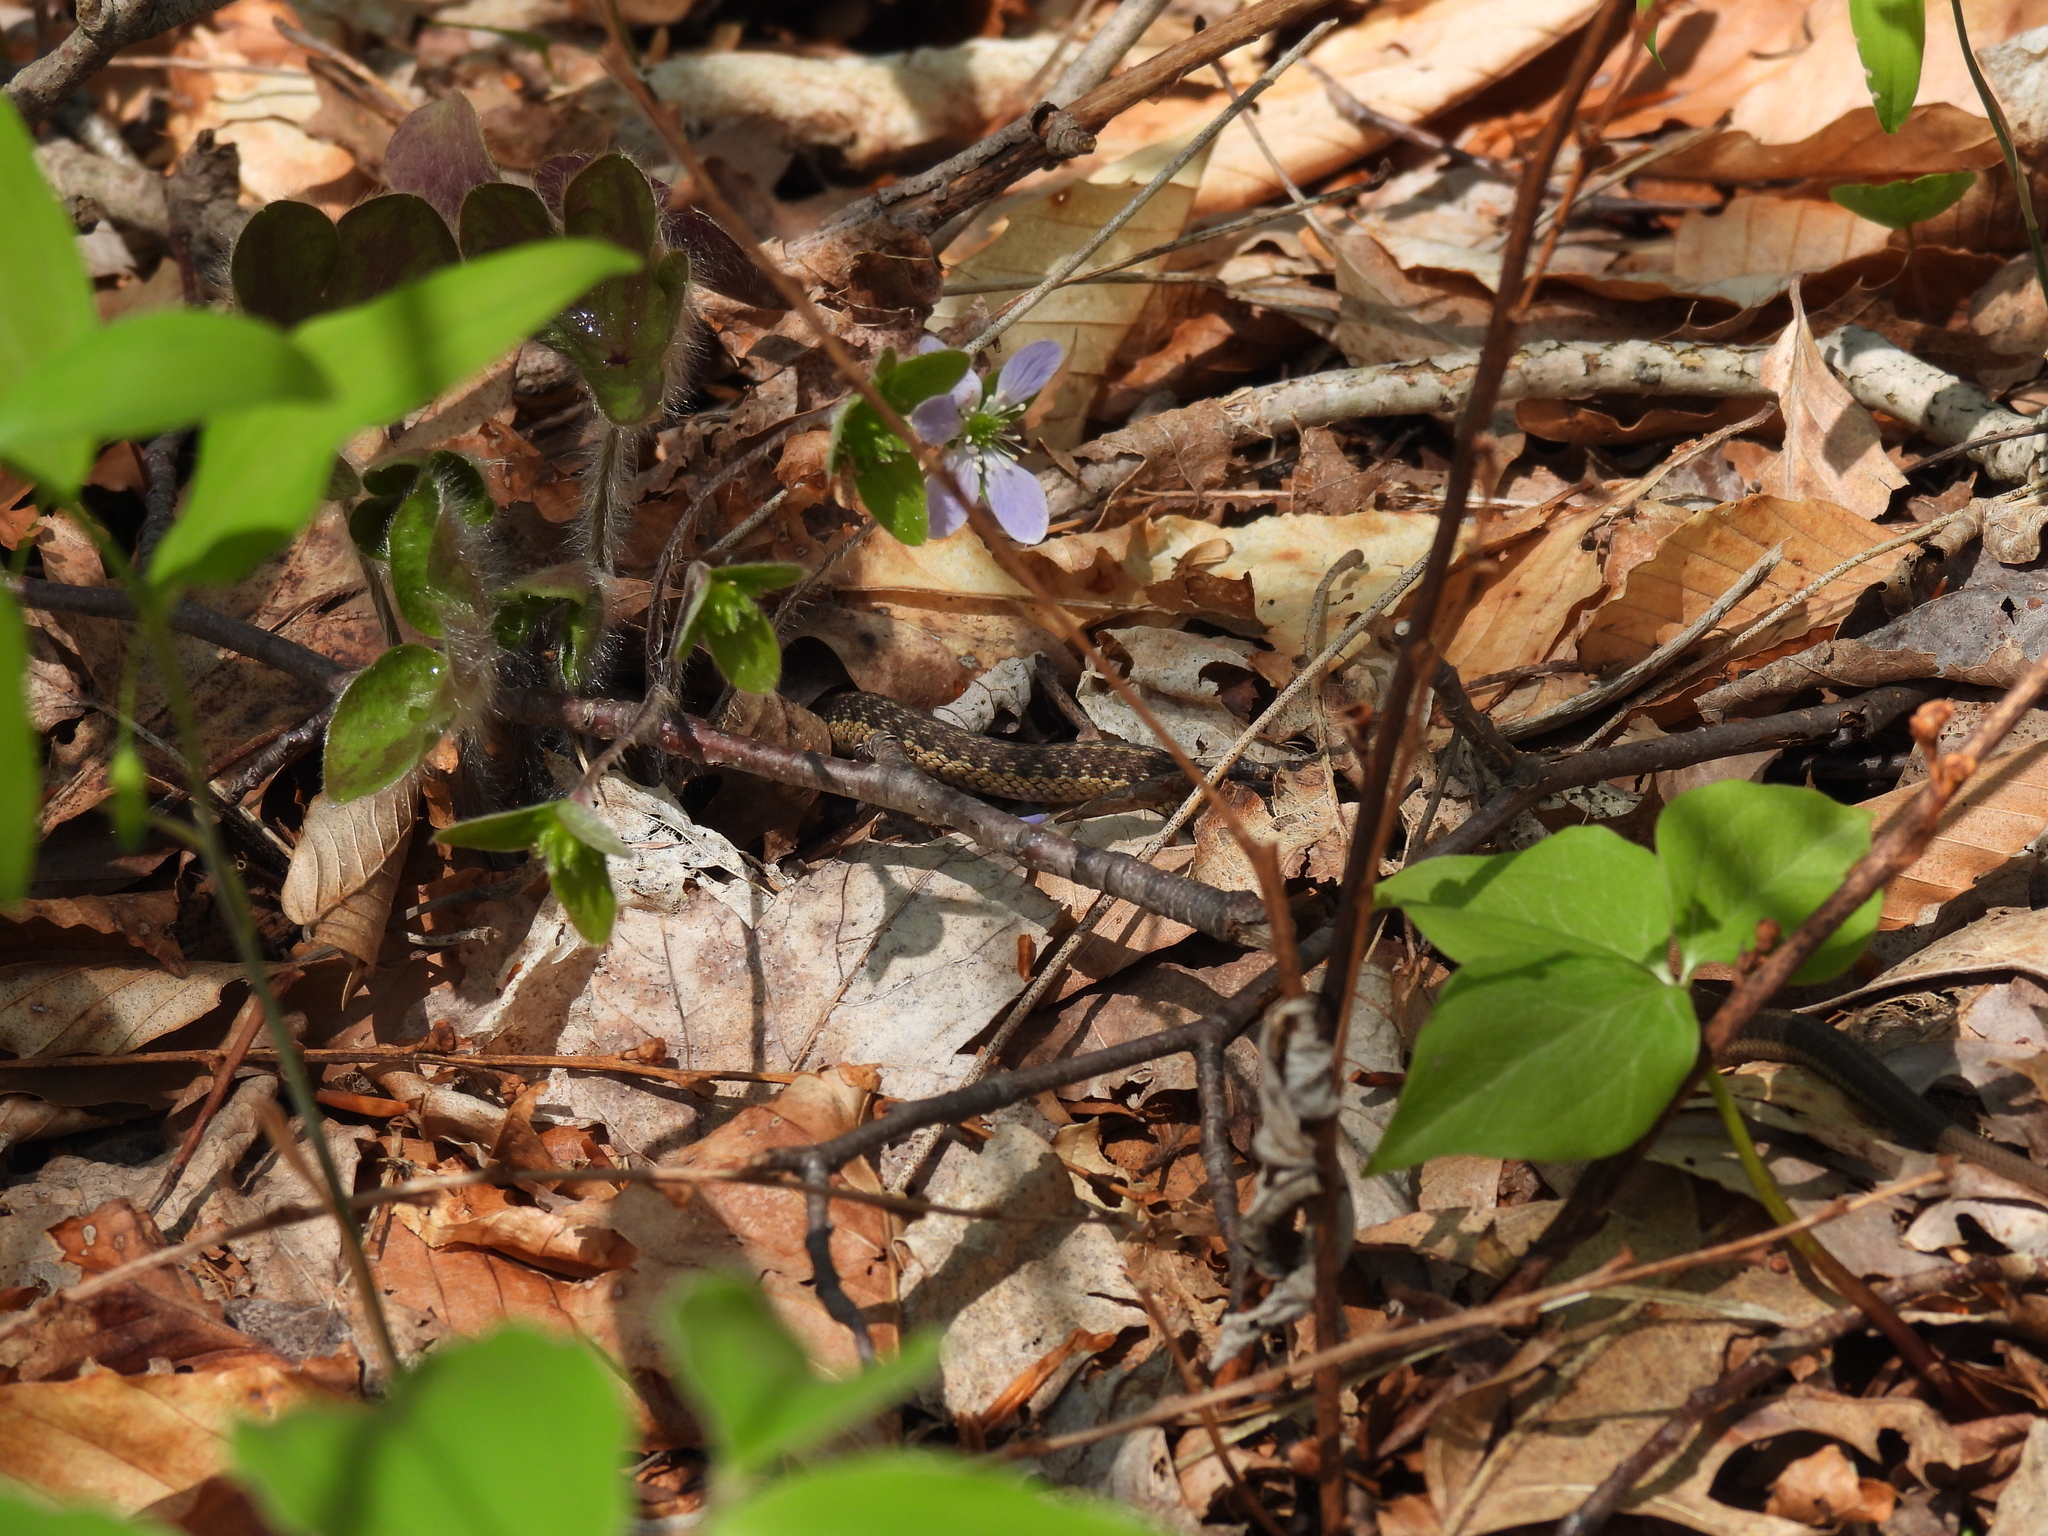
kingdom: Animalia
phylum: Chordata
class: Squamata
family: Colubridae
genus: Thamnophis
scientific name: Thamnophis sirtalis
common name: Common garter snake
